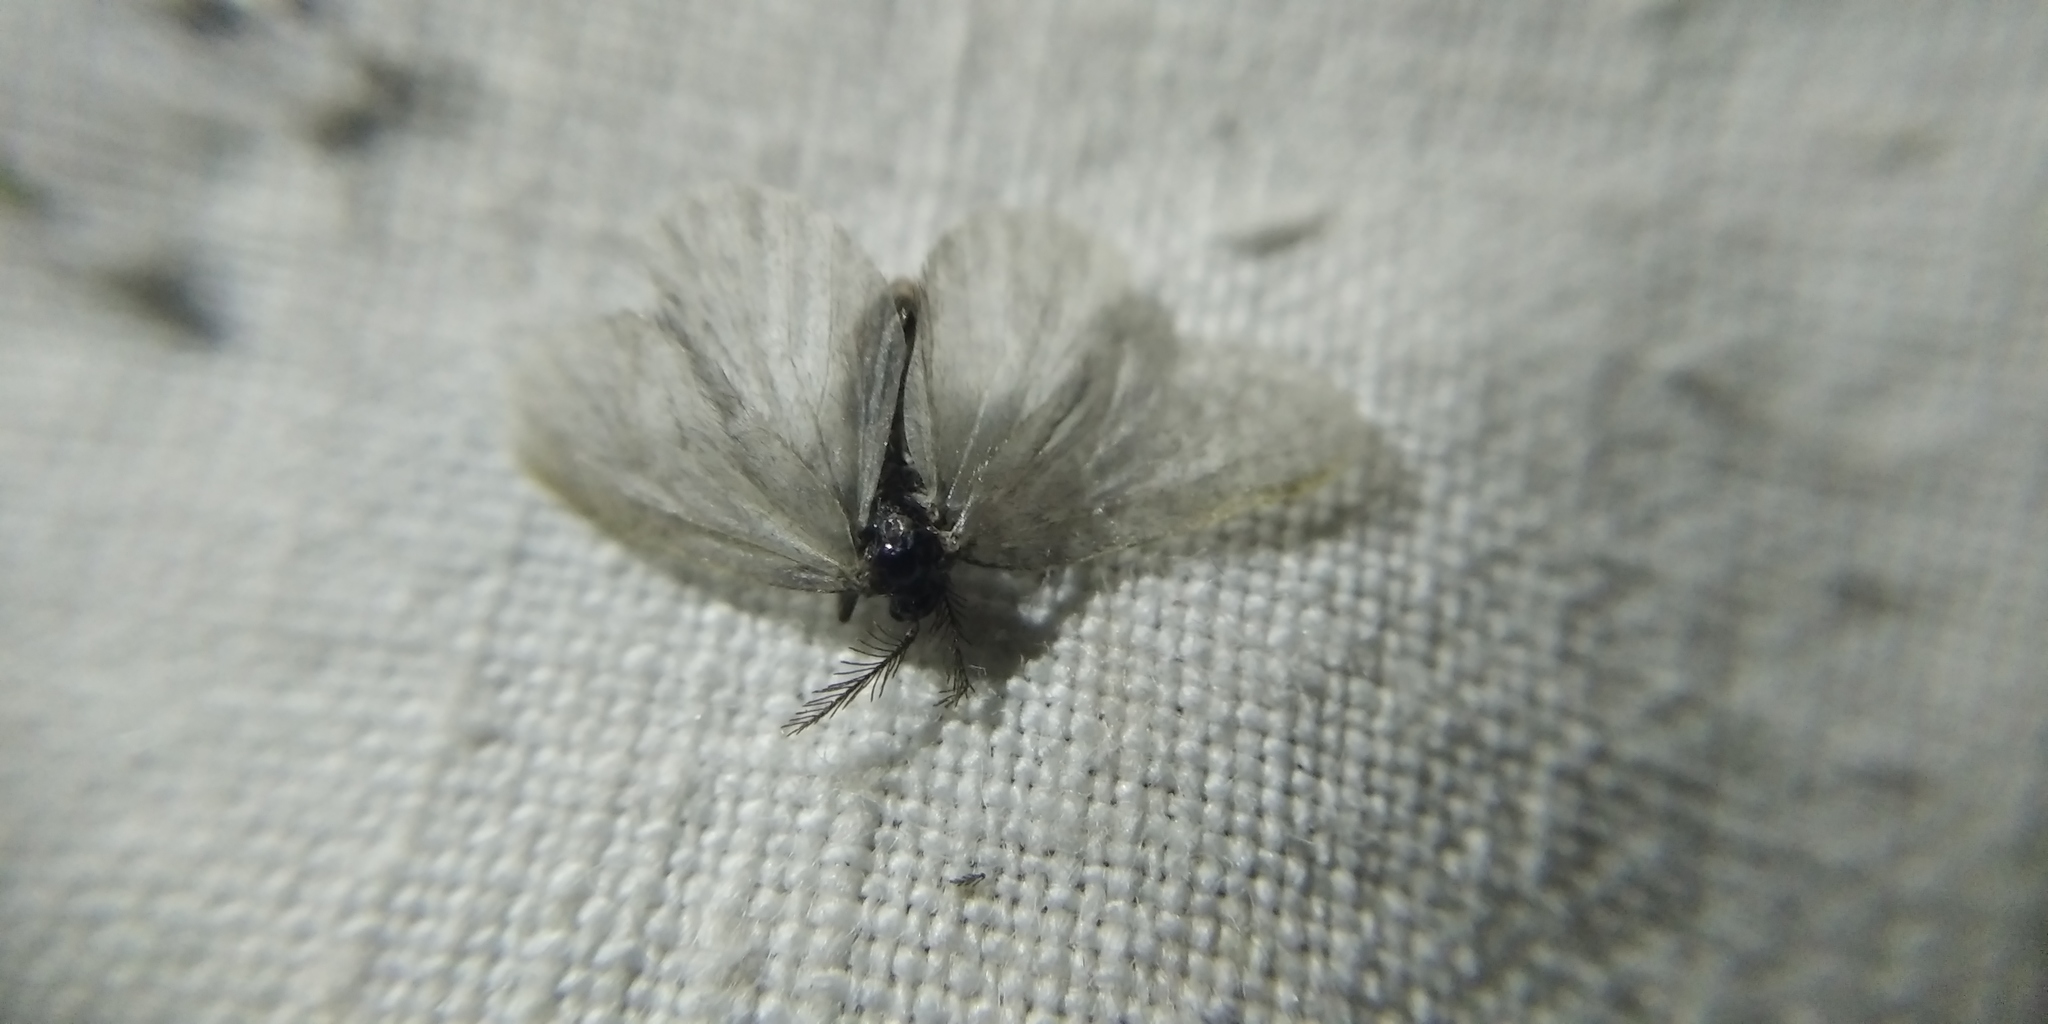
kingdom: Animalia
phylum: Arthropoda
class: Insecta
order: Lepidoptera
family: Psychidae
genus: Sterrhopterix
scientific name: Sterrhopterix fusca
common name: Brown sweep
